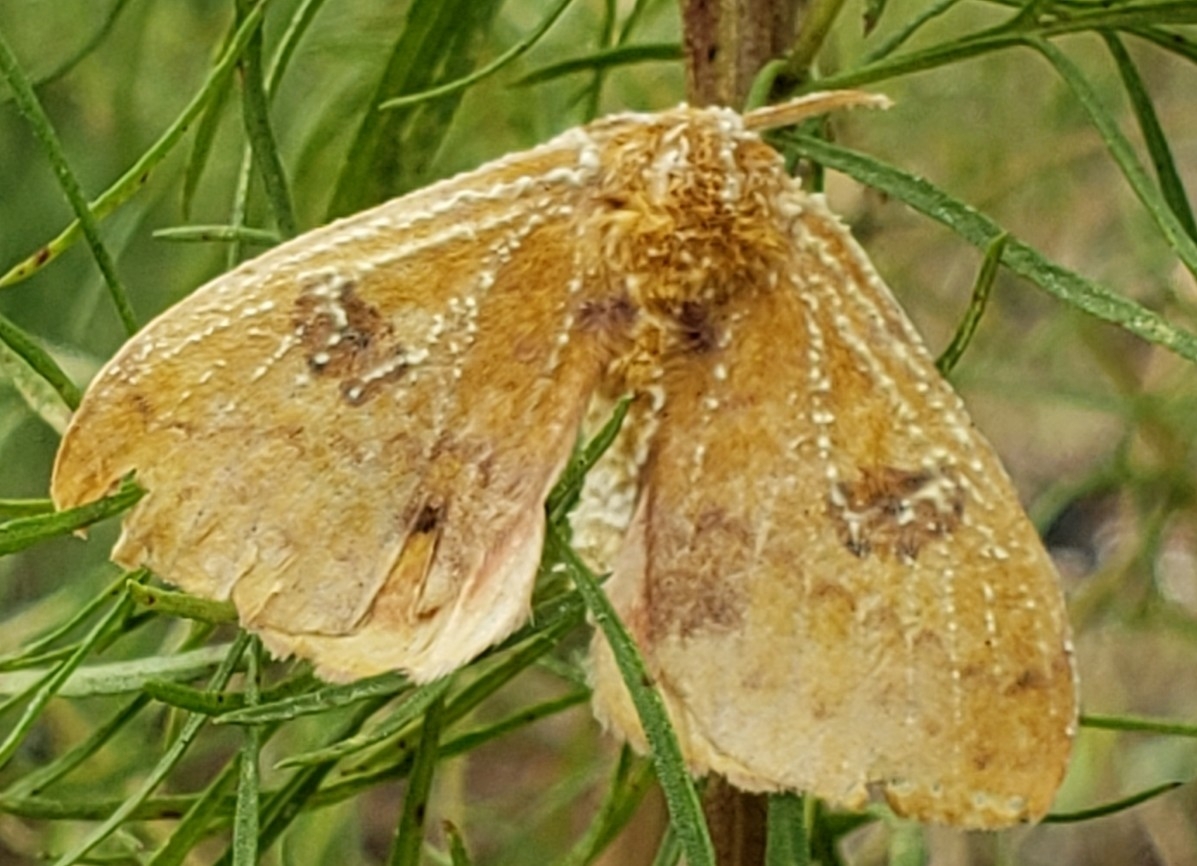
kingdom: Animalia
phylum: Arthropoda
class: Insecta
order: Lepidoptera
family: Saturniidae
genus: Automeris
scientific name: Automeris io
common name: Io moth
